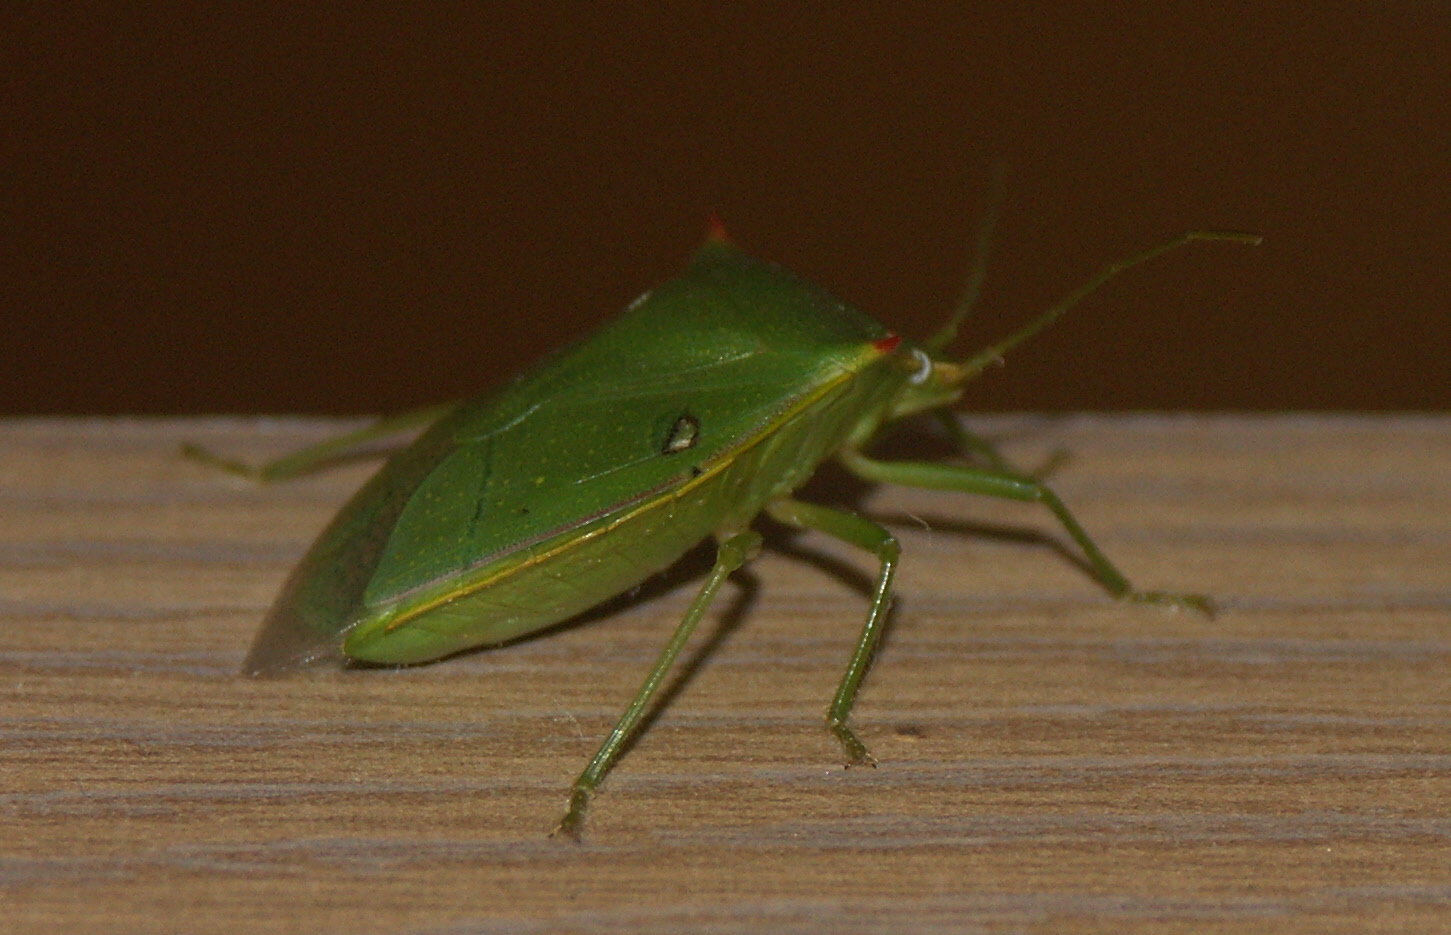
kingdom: Animalia
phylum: Arthropoda
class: Insecta
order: Hemiptera
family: Pentatomidae
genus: Loxa
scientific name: Loxa flavicollis
